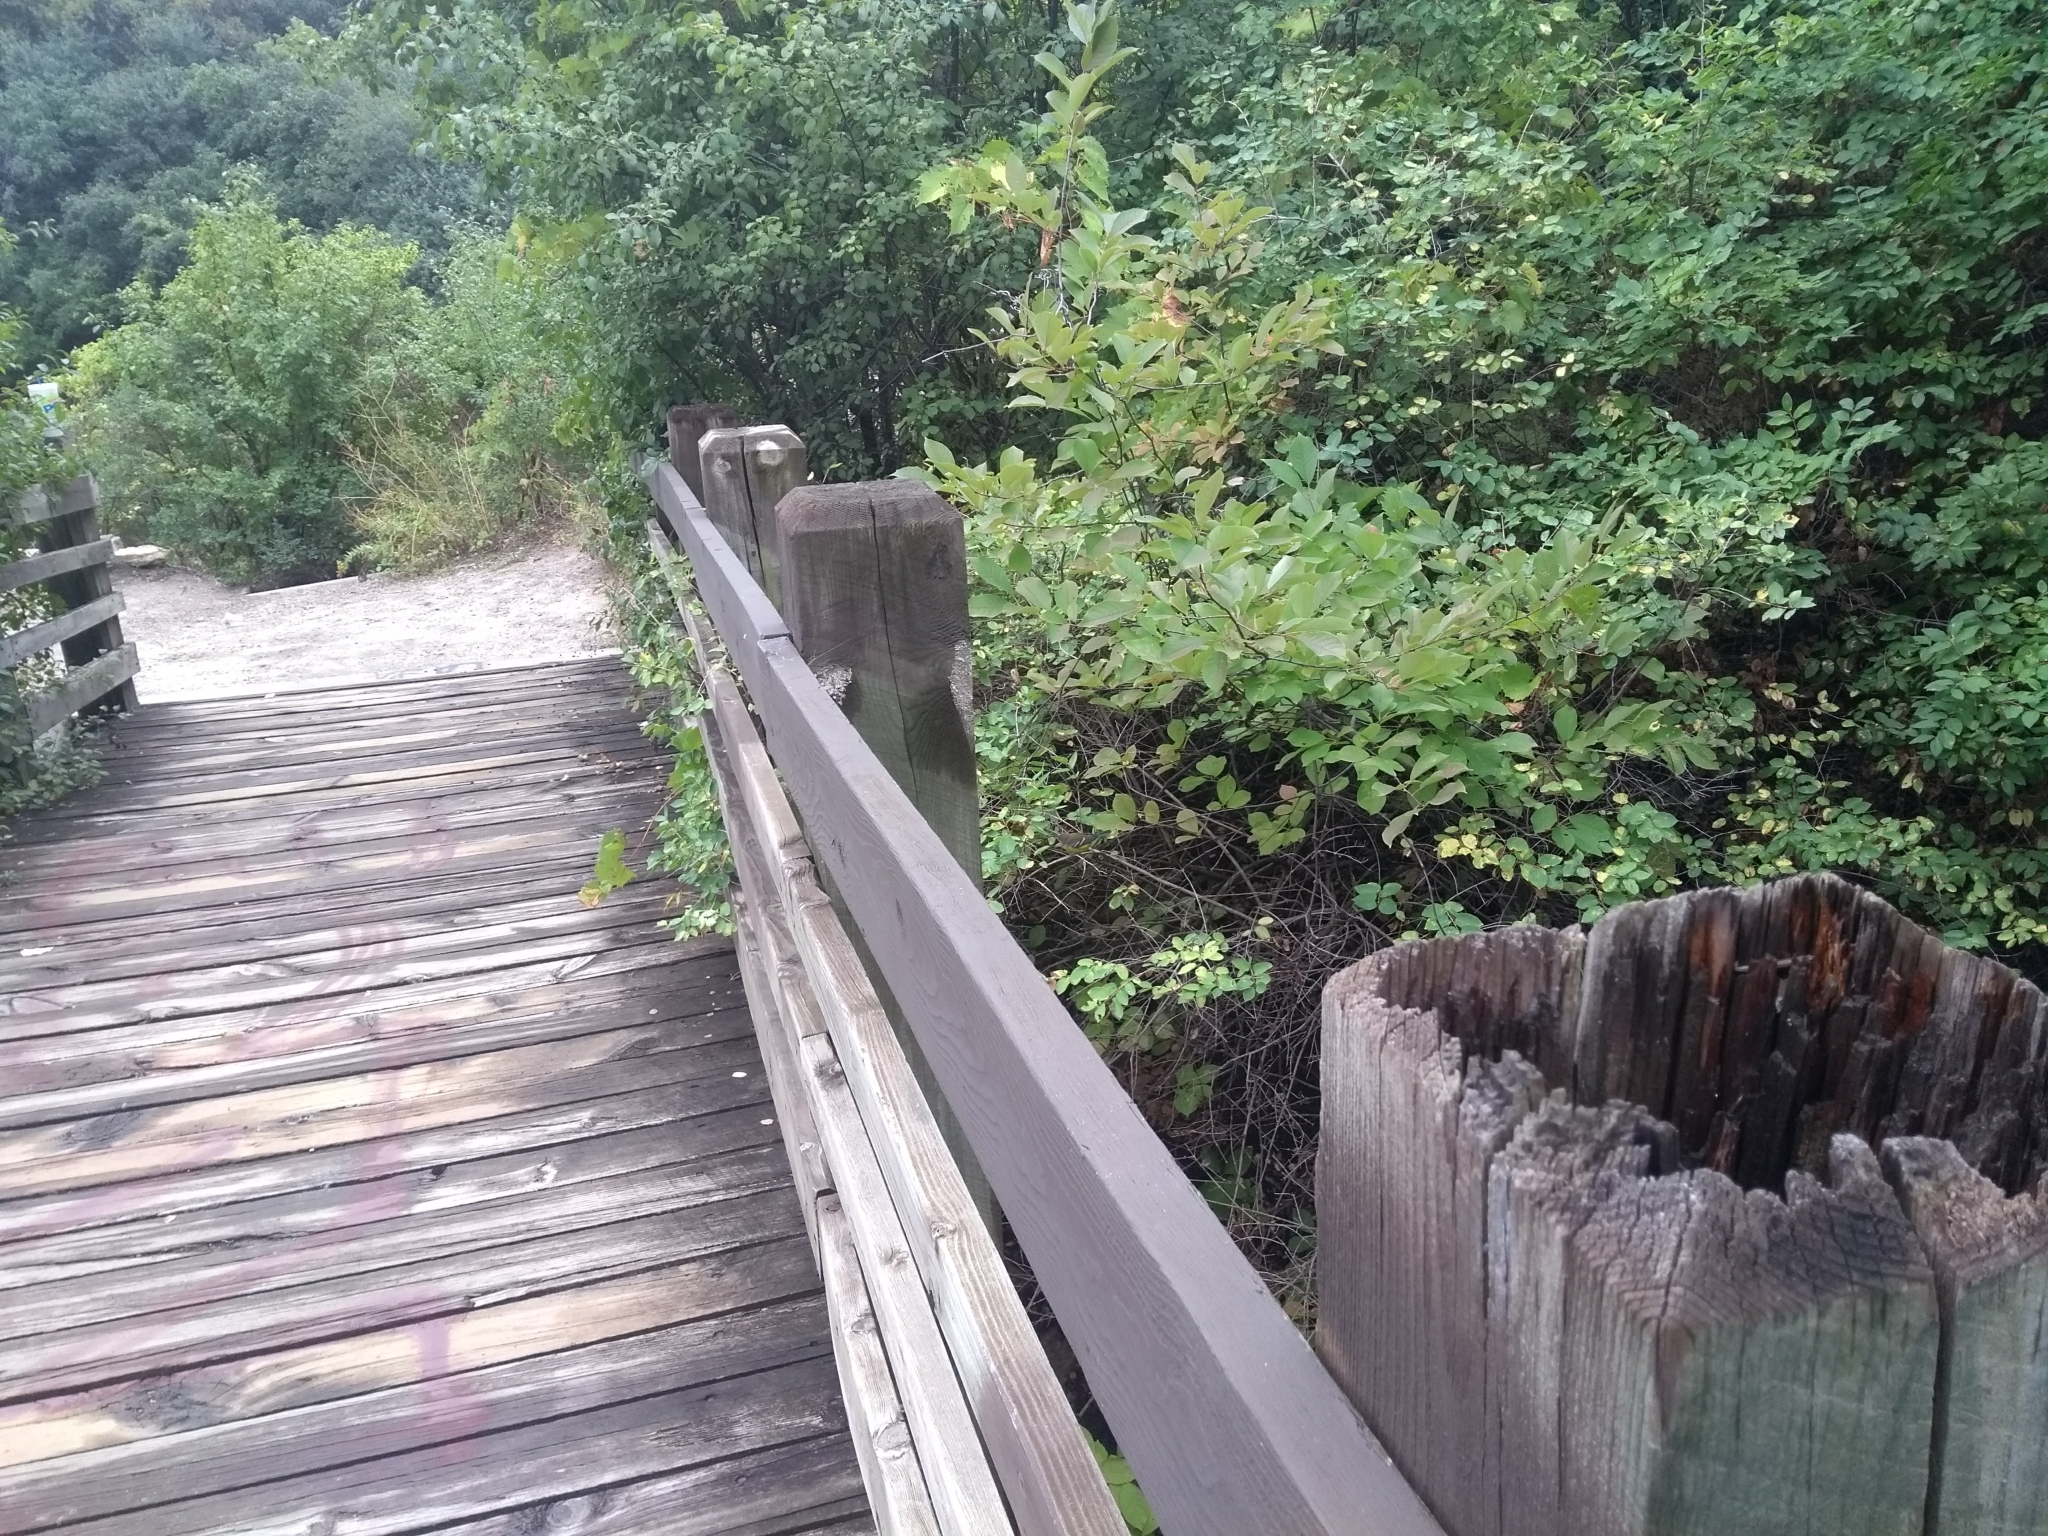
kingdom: Animalia
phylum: Chordata
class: Aves
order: Passeriformes
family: Parulidae
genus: Setophaga
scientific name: Setophaga magnolia
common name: Magnolia warbler
